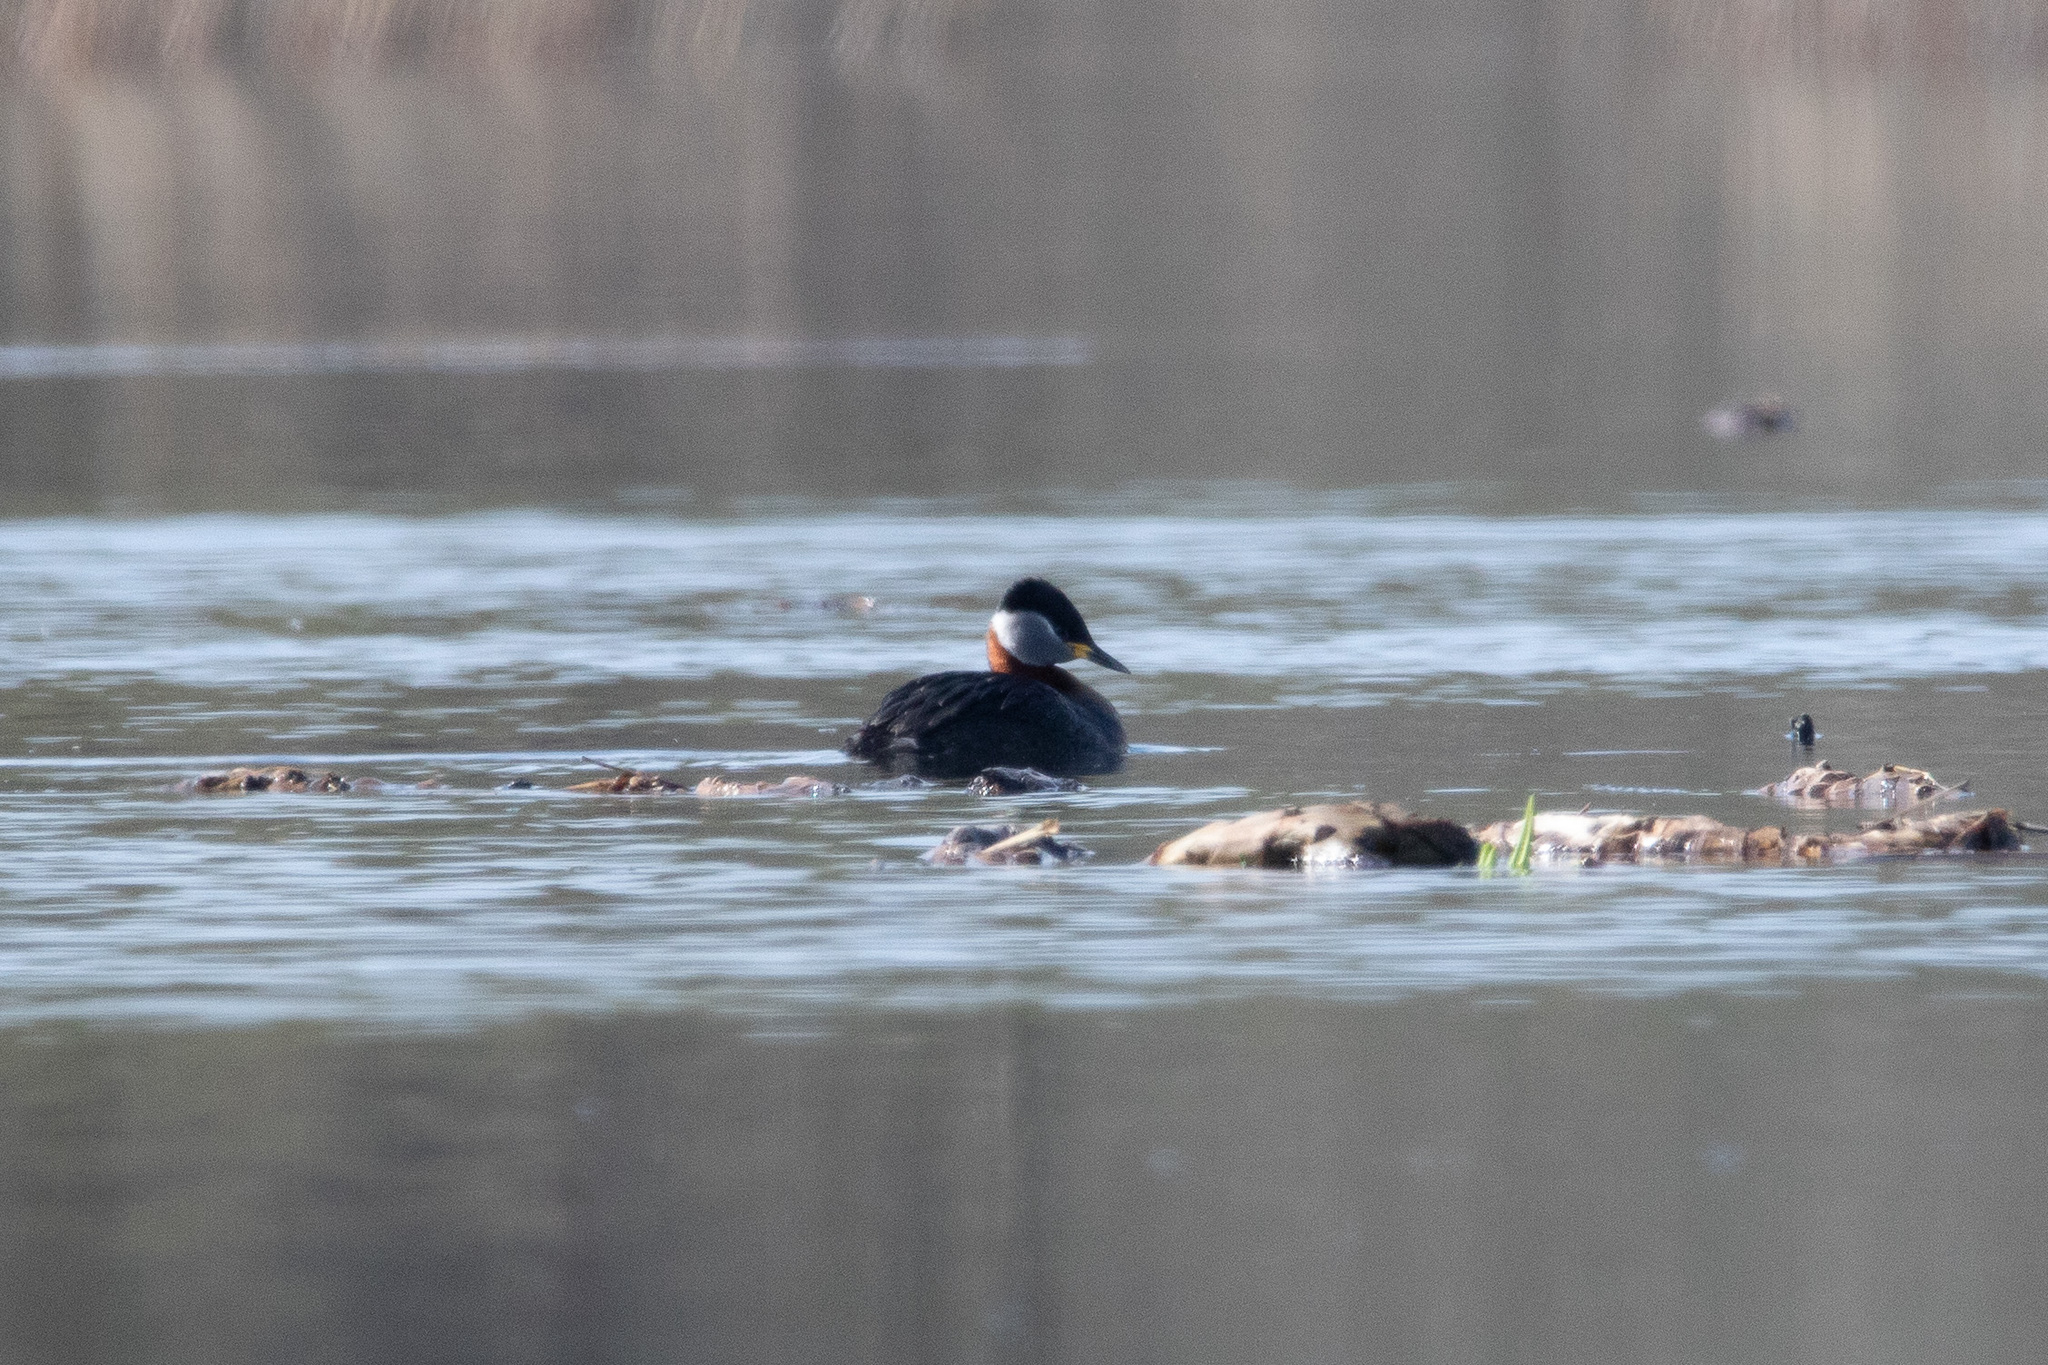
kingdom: Animalia
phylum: Chordata
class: Aves
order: Podicipediformes
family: Podicipedidae
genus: Podiceps
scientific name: Podiceps grisegena
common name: Red-necked grebe
